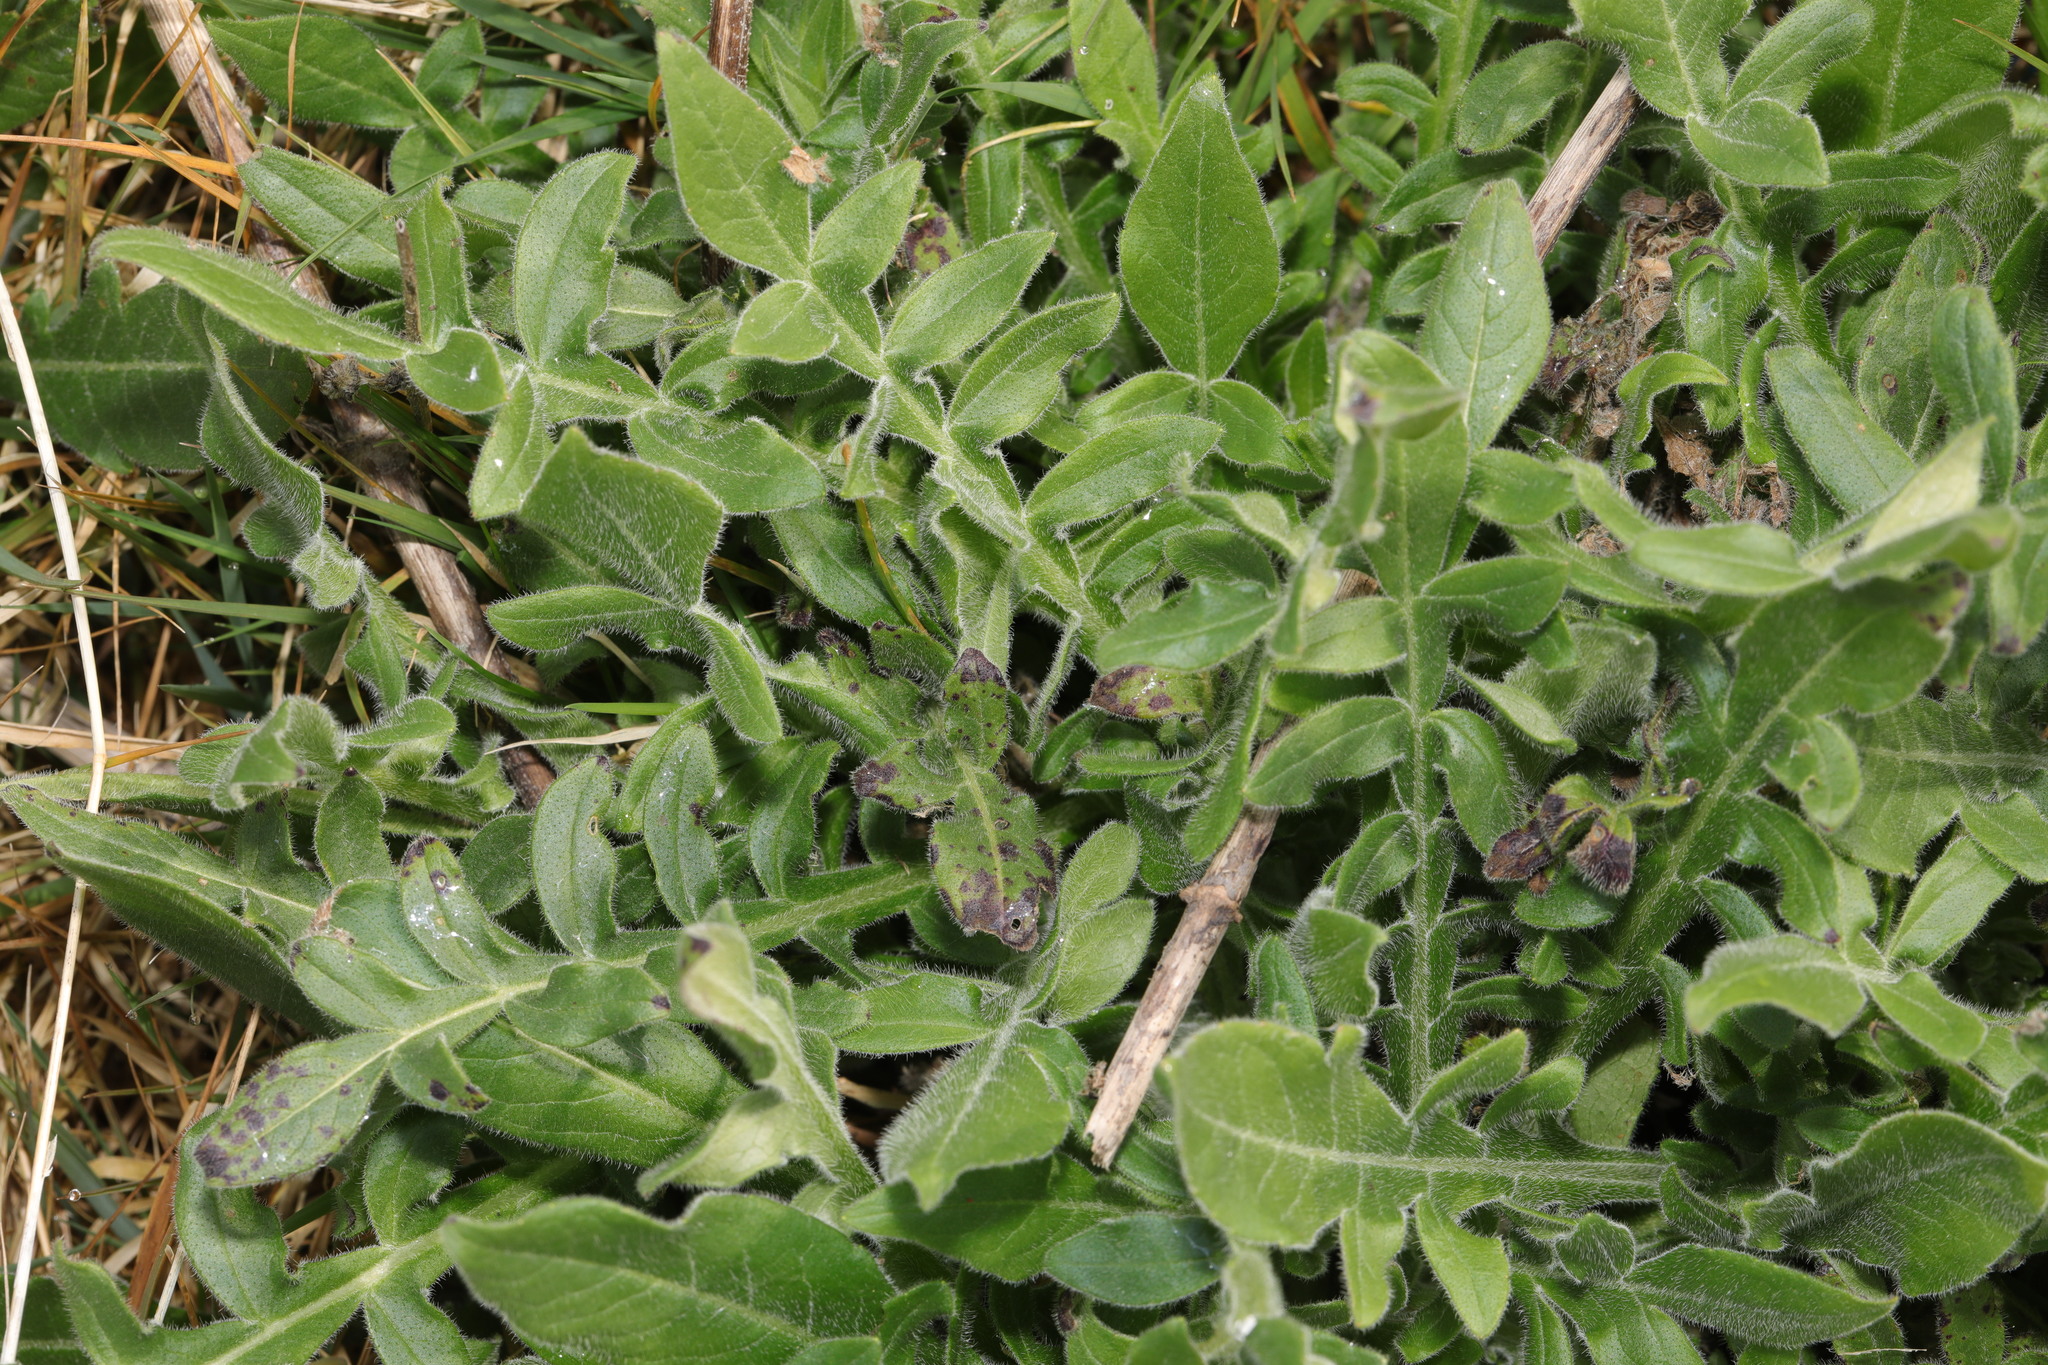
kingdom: Plantae
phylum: Tracheophyta
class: Magnoliopsida
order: Dipsacales
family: Caprifoliaceae
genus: Knautia
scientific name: Knautia arvensis
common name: Field scabiosa
